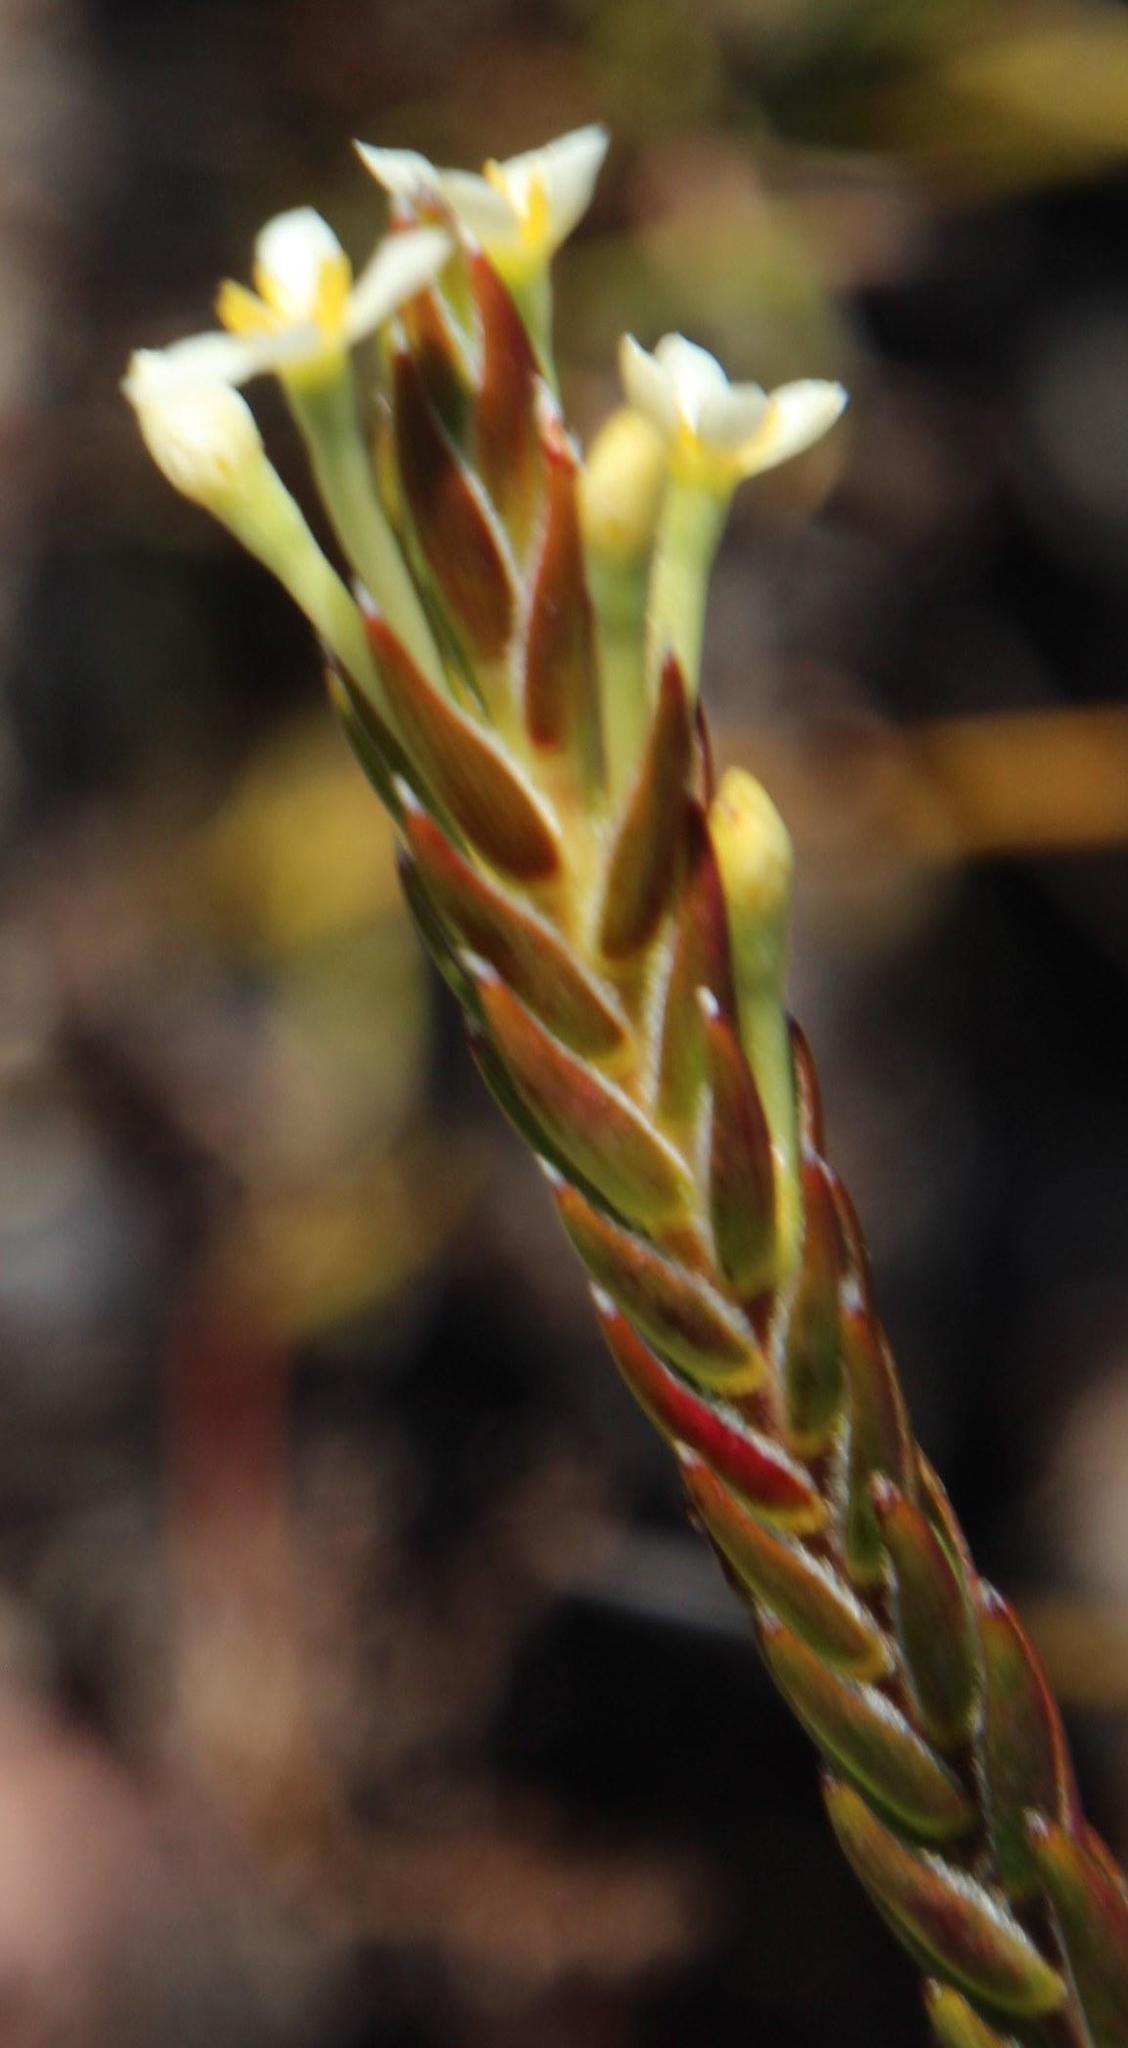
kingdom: Plantae
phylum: Tracheophyta
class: Magnoliopsida
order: Malvales
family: Thymelaeaceae
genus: Struthiola
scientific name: Struthiola ciliata
